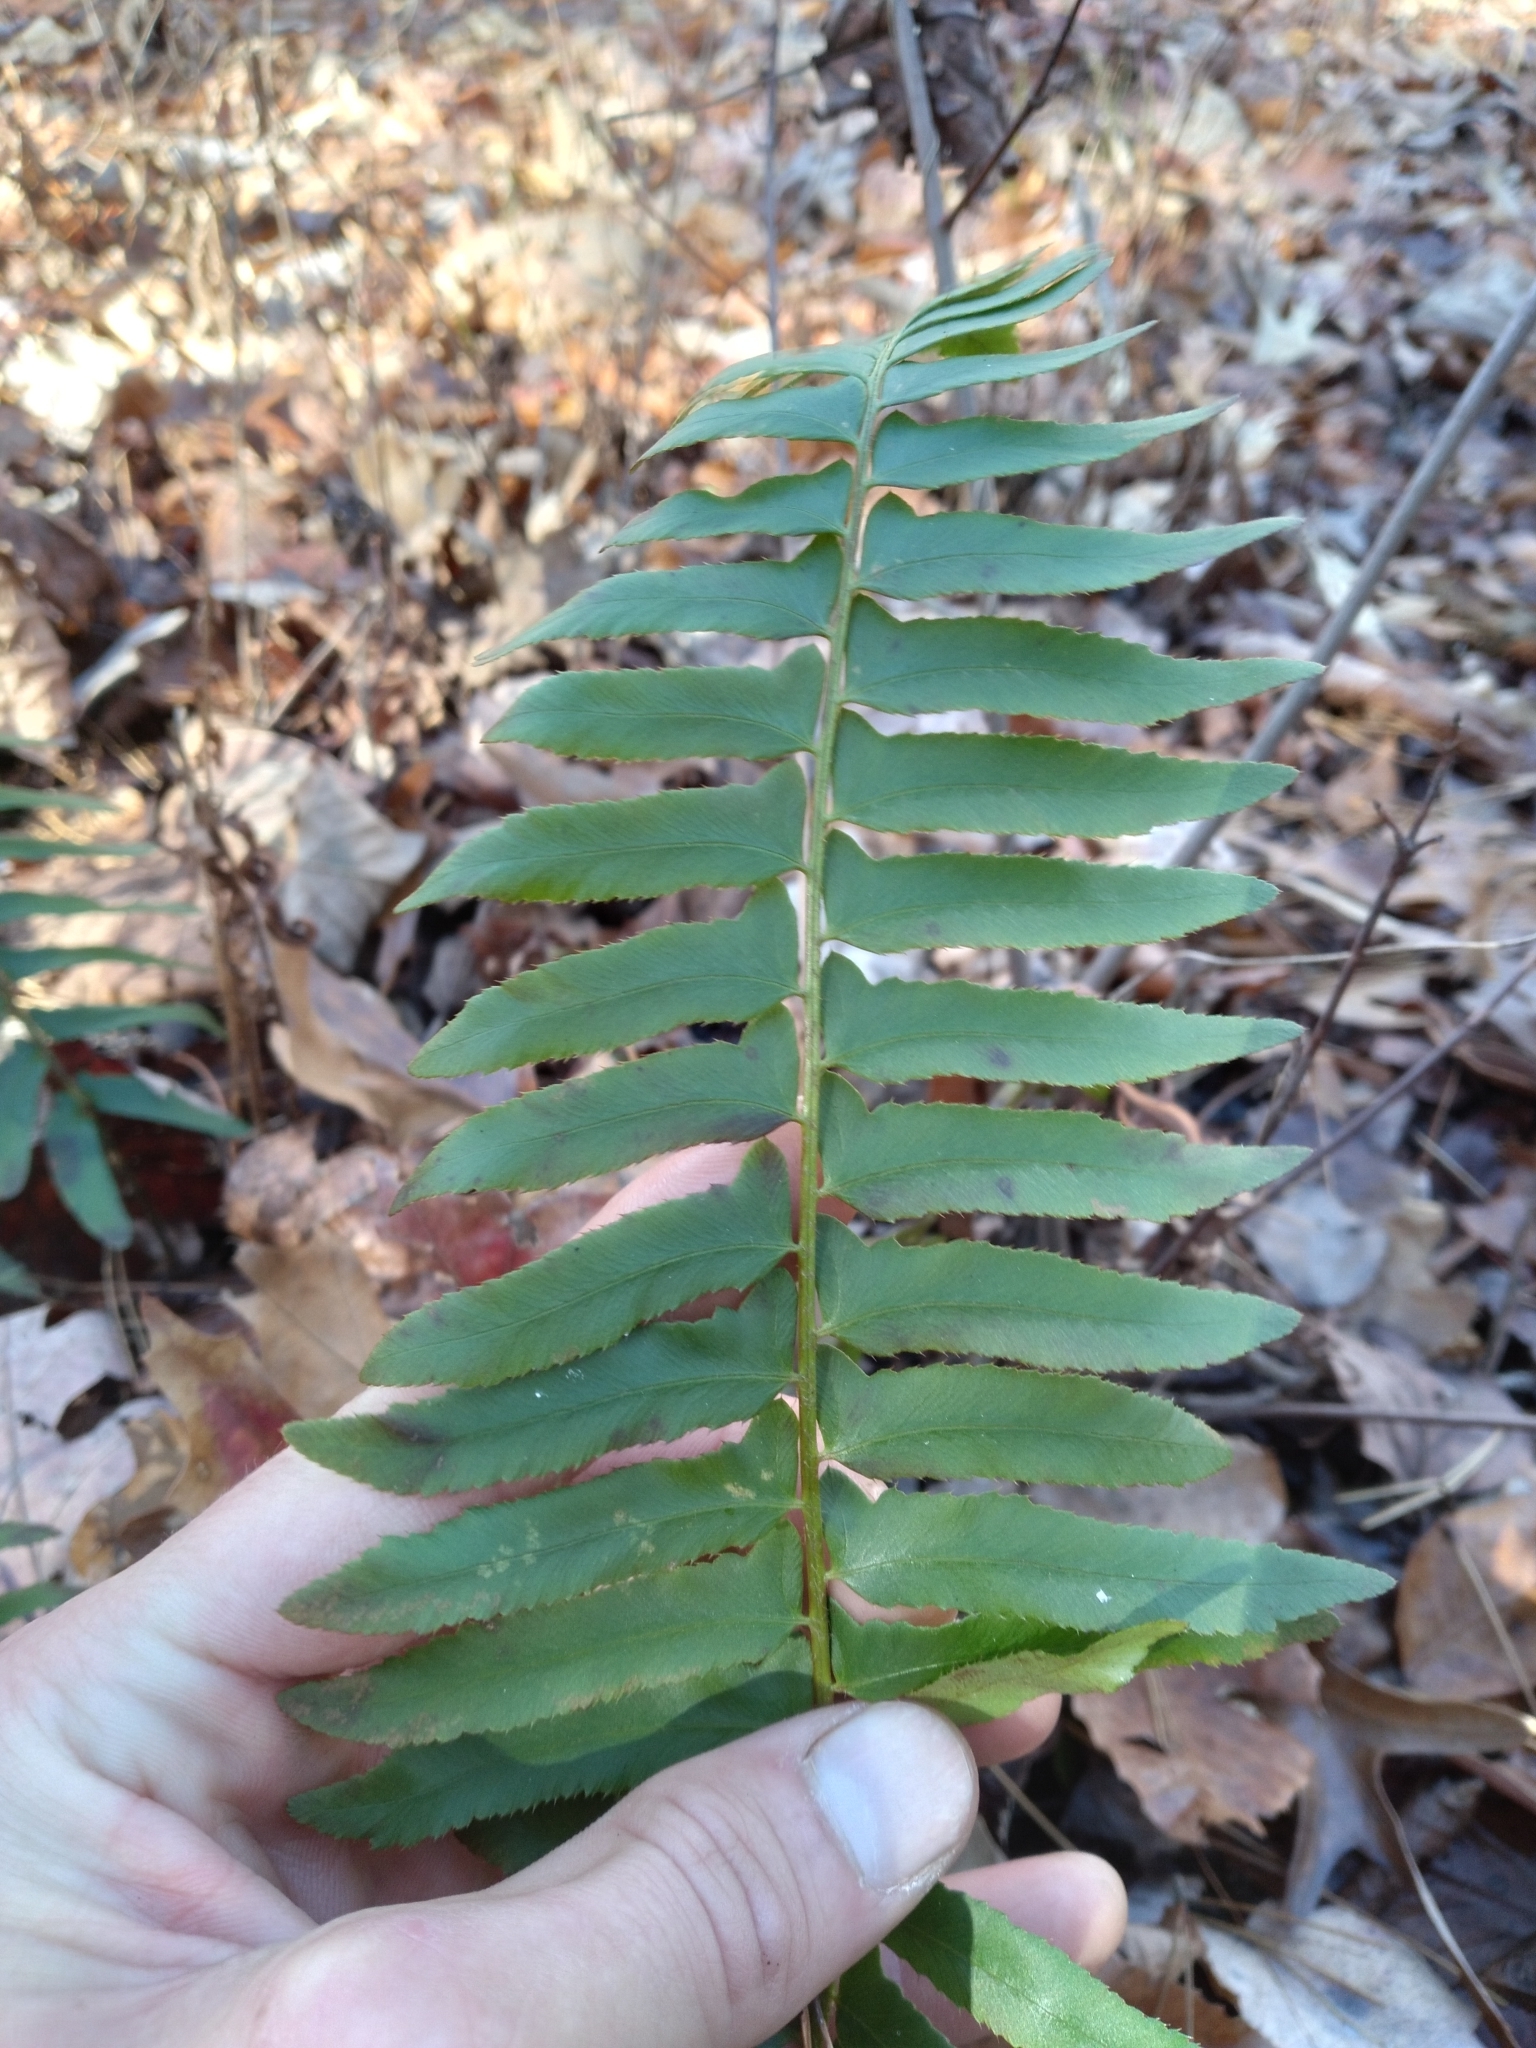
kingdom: Plantae
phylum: Tracheophyta
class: Polypodiopsida
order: Polypodiales
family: Dryopteridaceae
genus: Polystichum
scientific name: Polystichum acrostichoides
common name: Christmas fern
